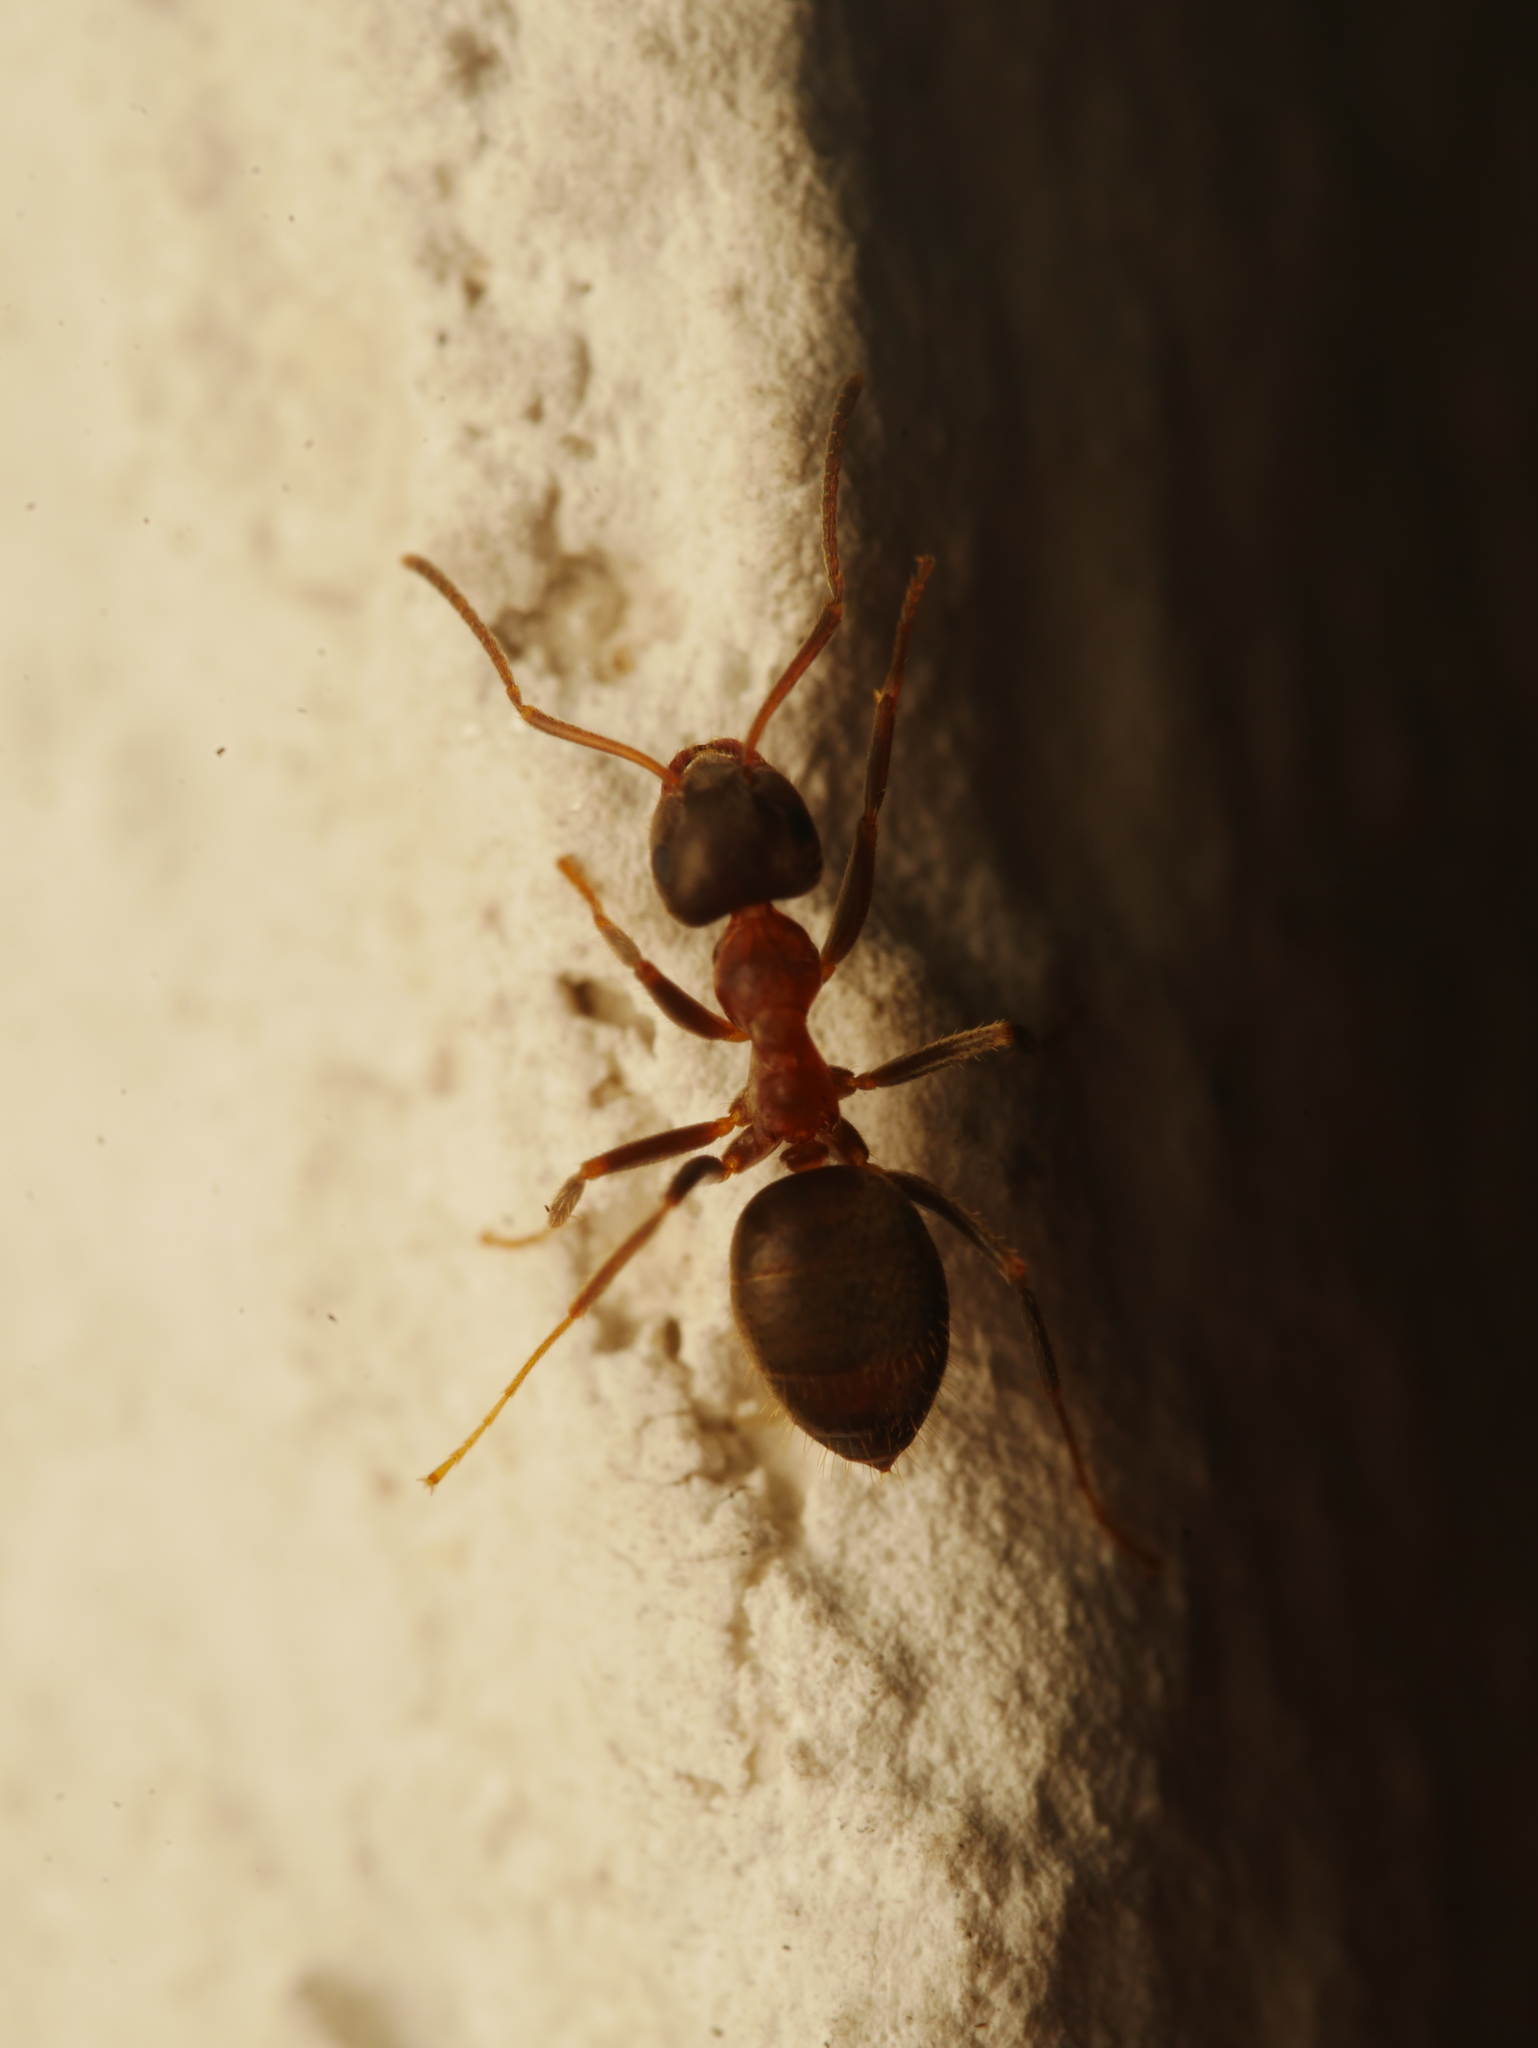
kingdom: Animalia
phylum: Arthropoda
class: Insecta
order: Hymenoptera
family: Formicidae
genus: Lasius
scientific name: Lasius emarginatus
